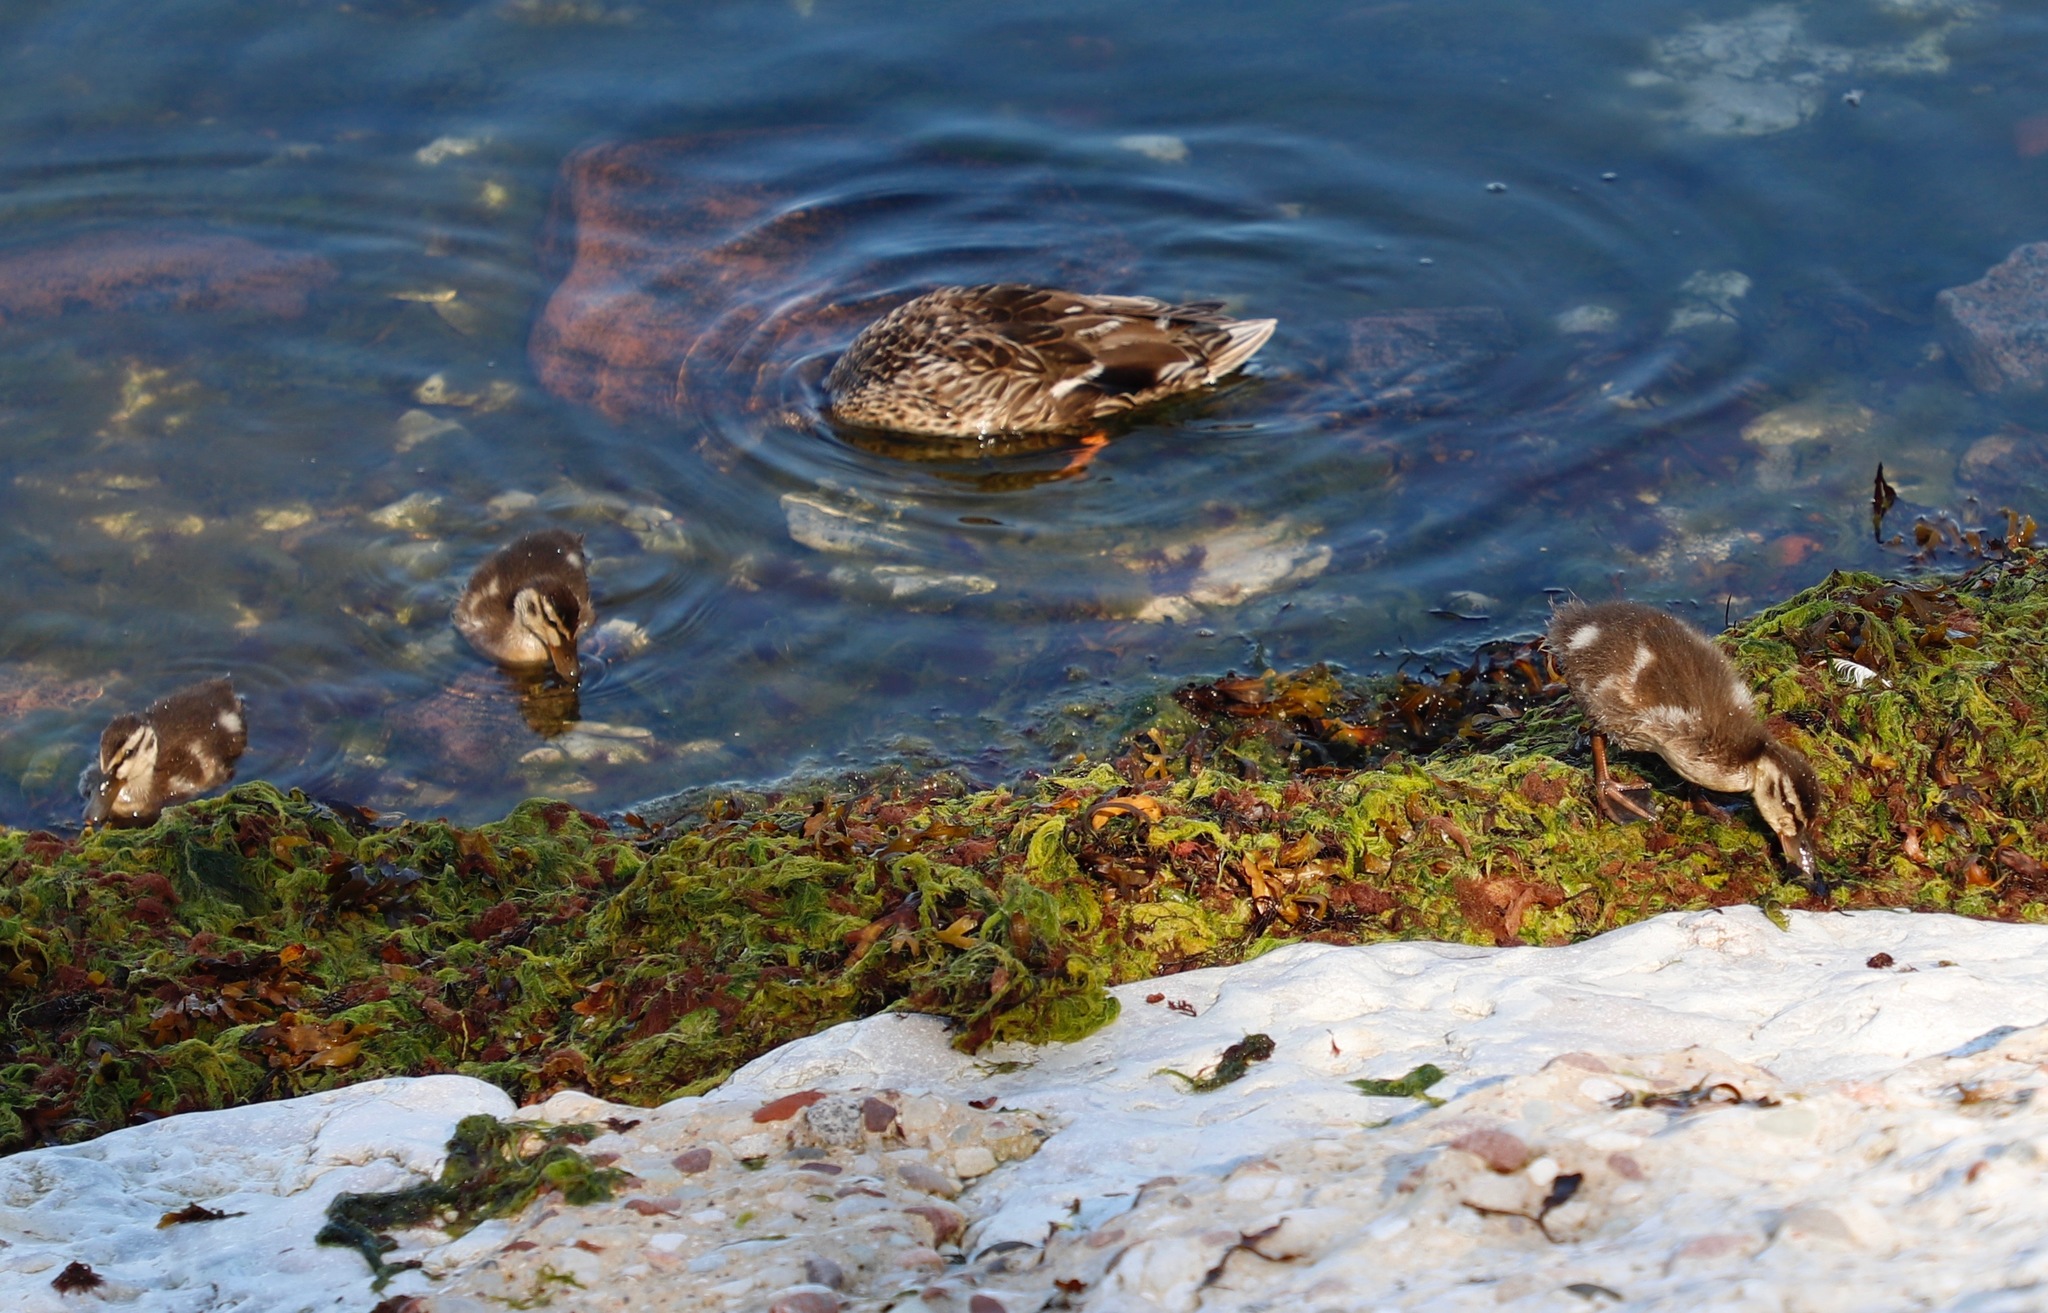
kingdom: Animalia
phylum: Chordata
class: Aves
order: Anseriformes
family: Anatidae
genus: Anas
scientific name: Anas platyrhynchos
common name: Mallard
